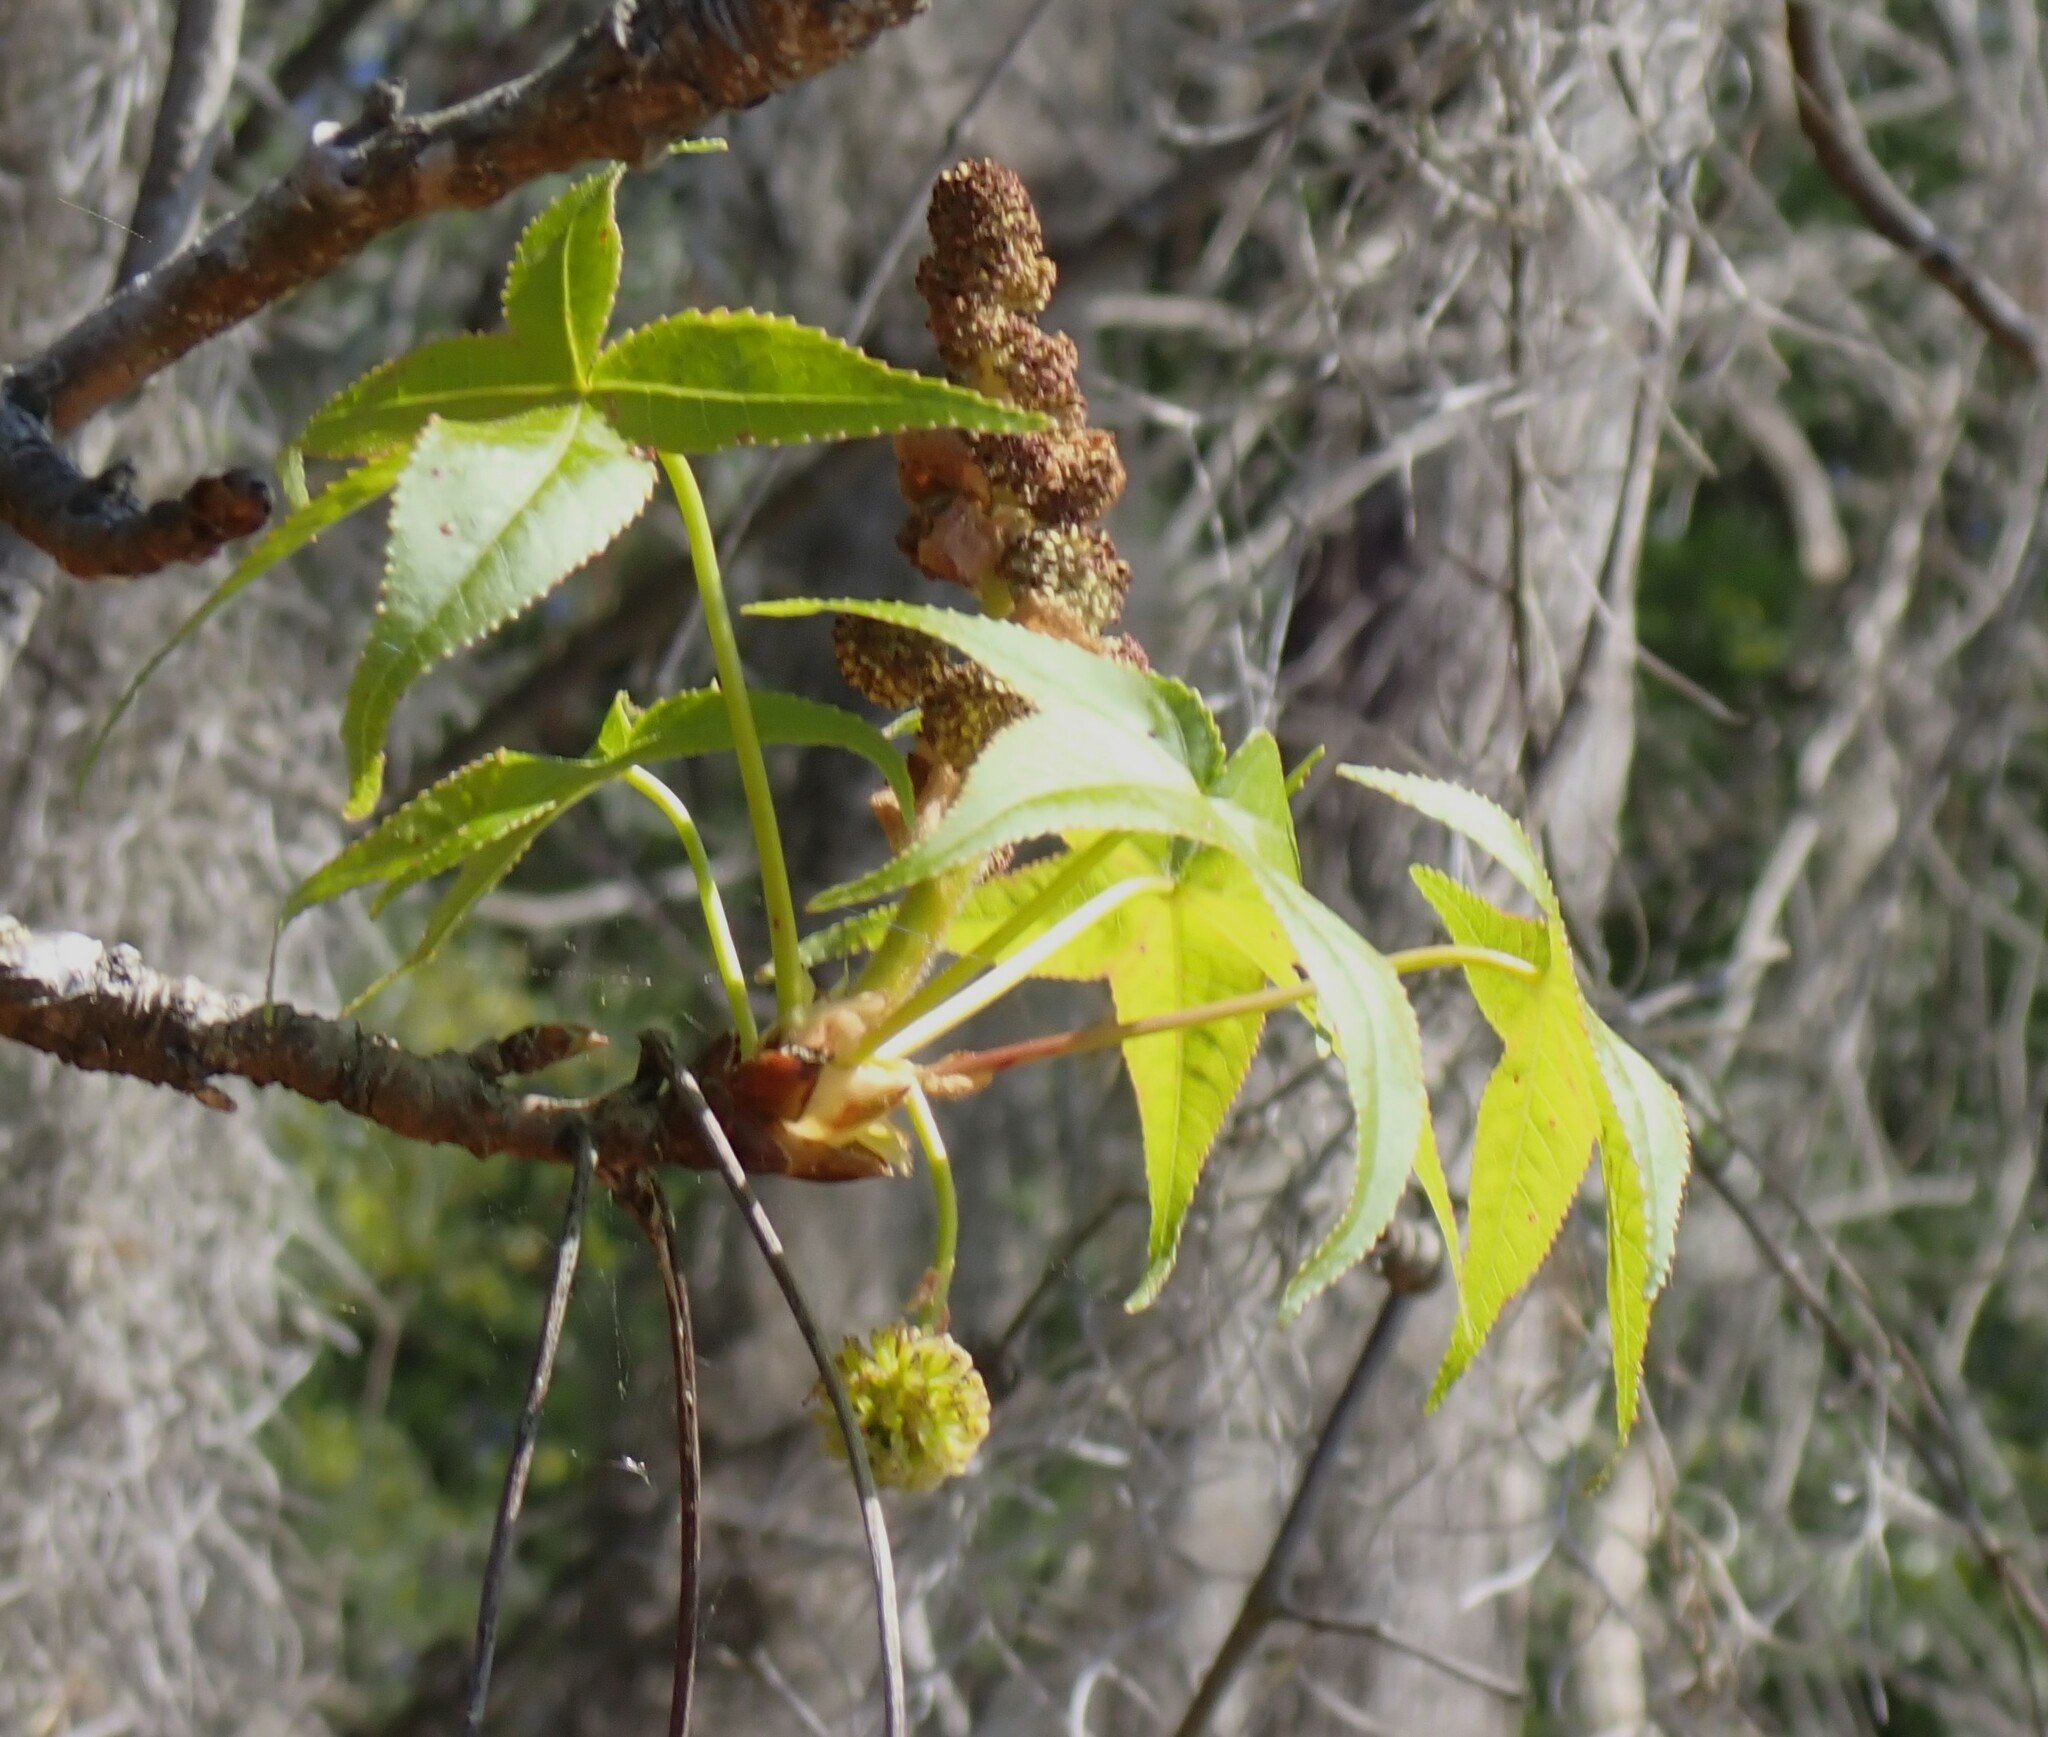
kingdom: Plantae
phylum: Tracheophyta
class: Magnoliopsida
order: Saxifragales
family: Altingiaceae
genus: Liquidambar
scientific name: Liquidambar styraciflua
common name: Sweet gum
